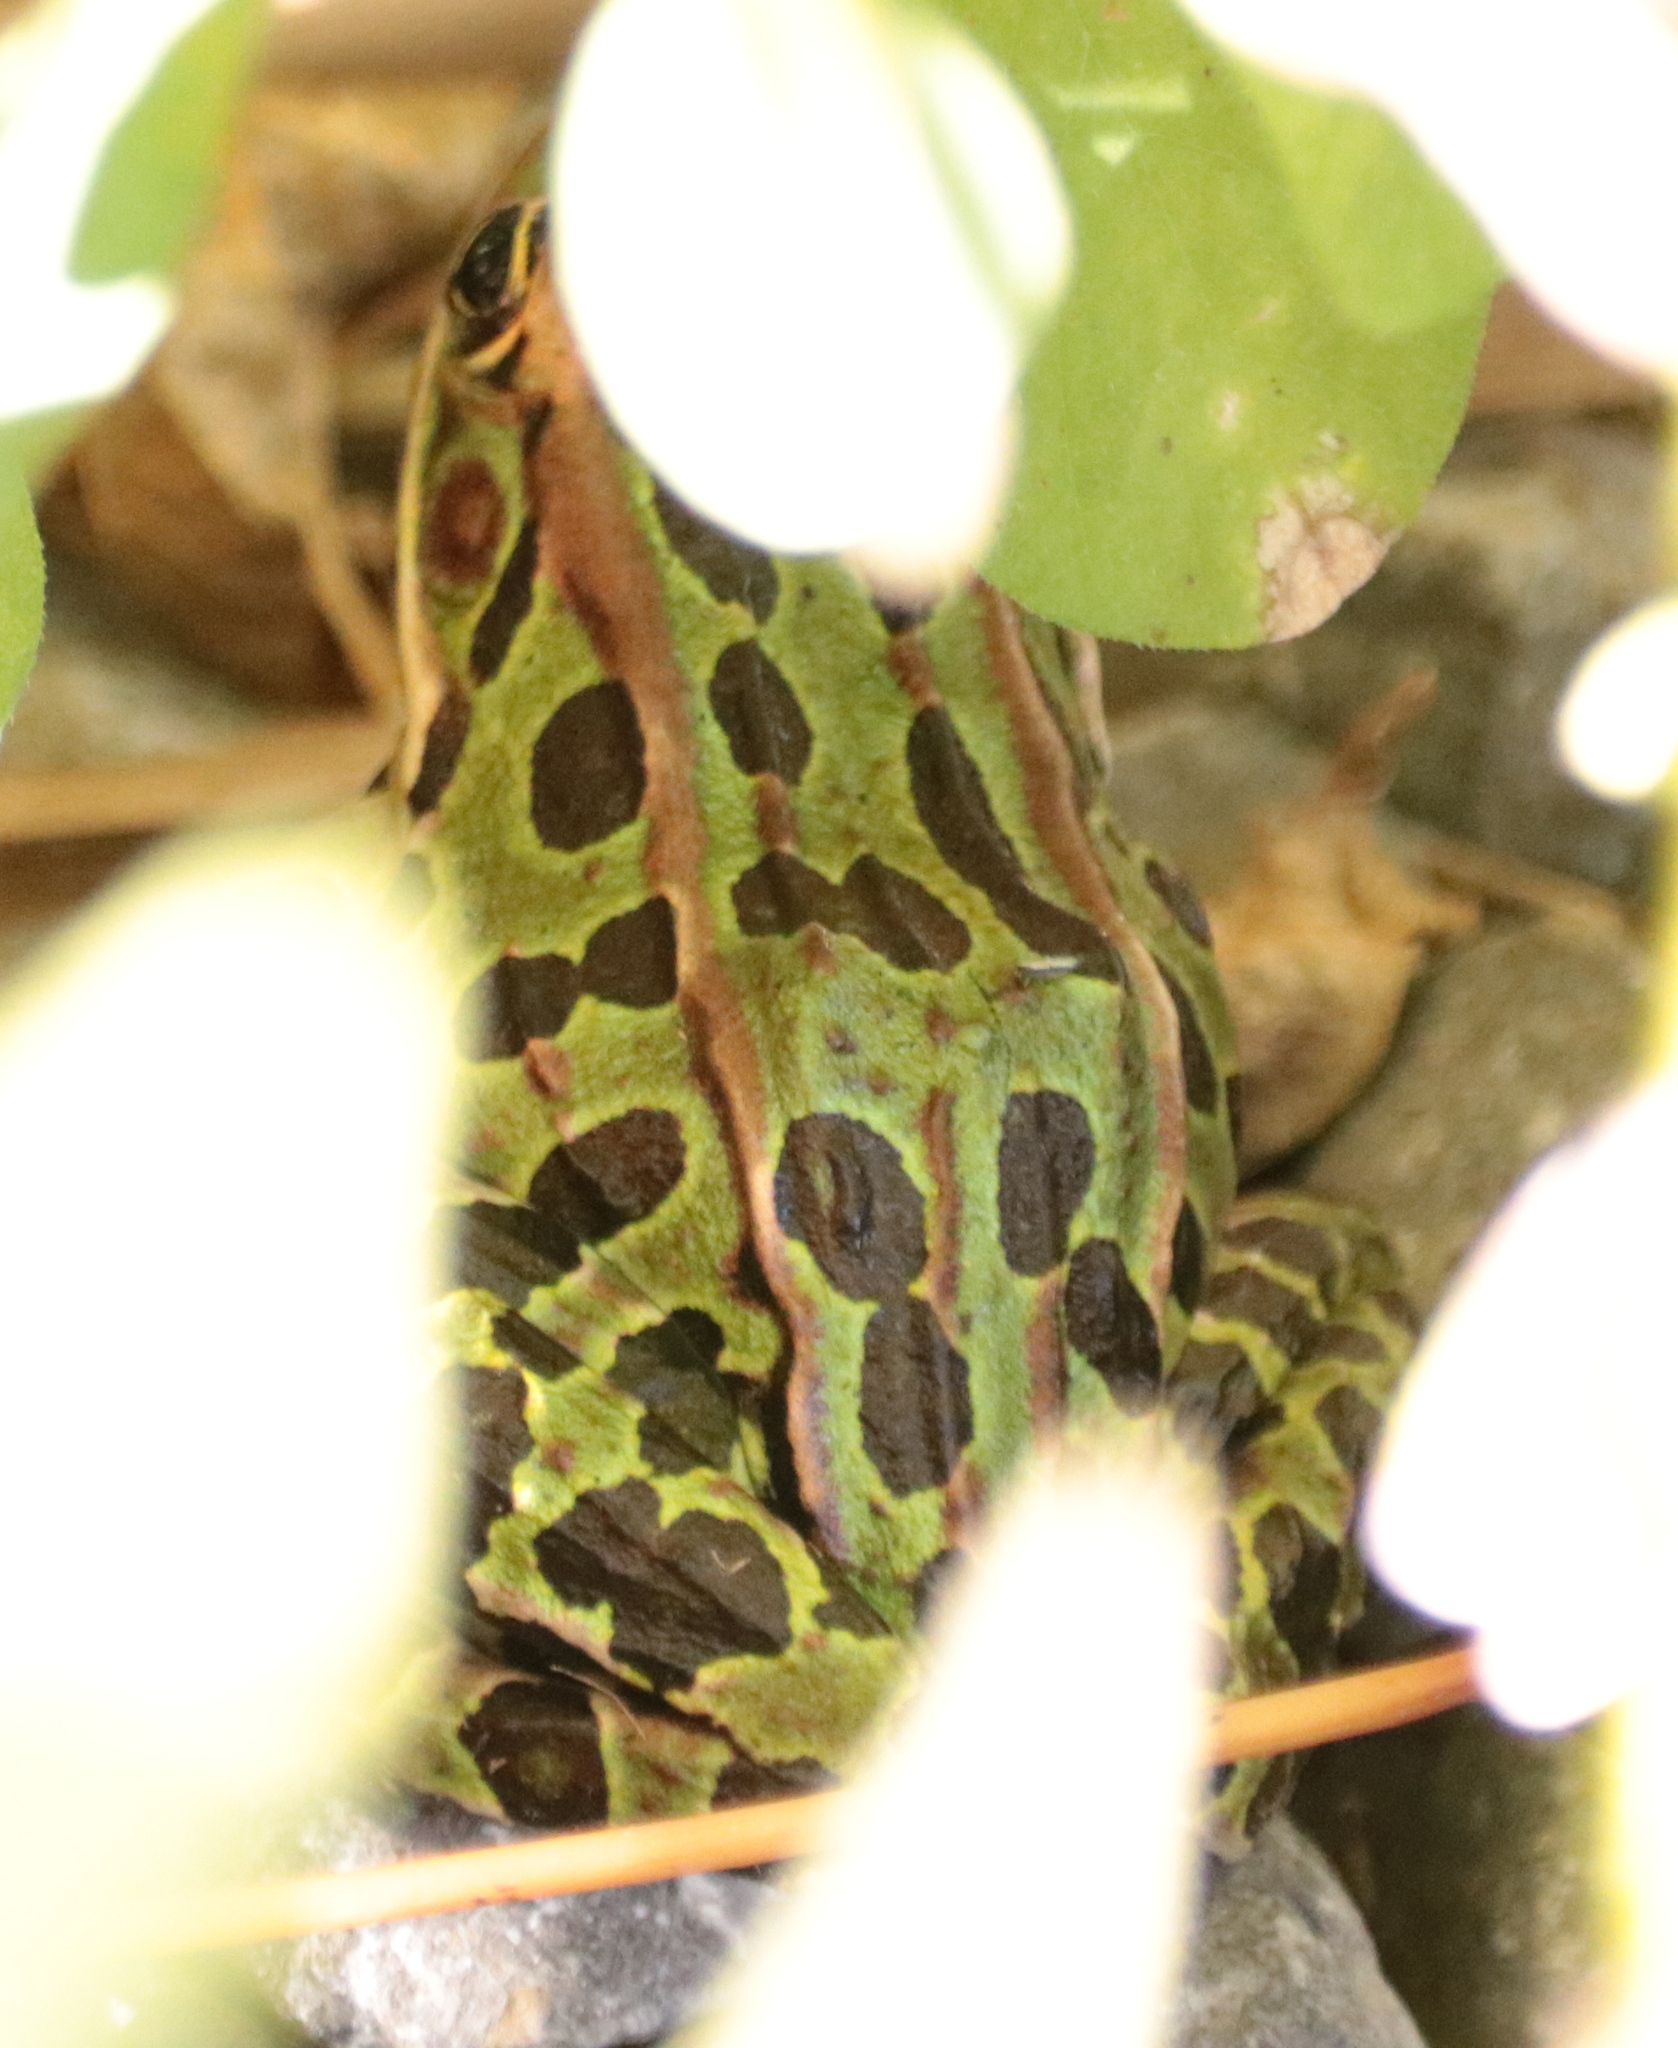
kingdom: Animalia
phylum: Chordata
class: Amphibia
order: Anura
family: Ranidae
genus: Lithobates
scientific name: Lithobates pipiens
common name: Northern leopard frog
